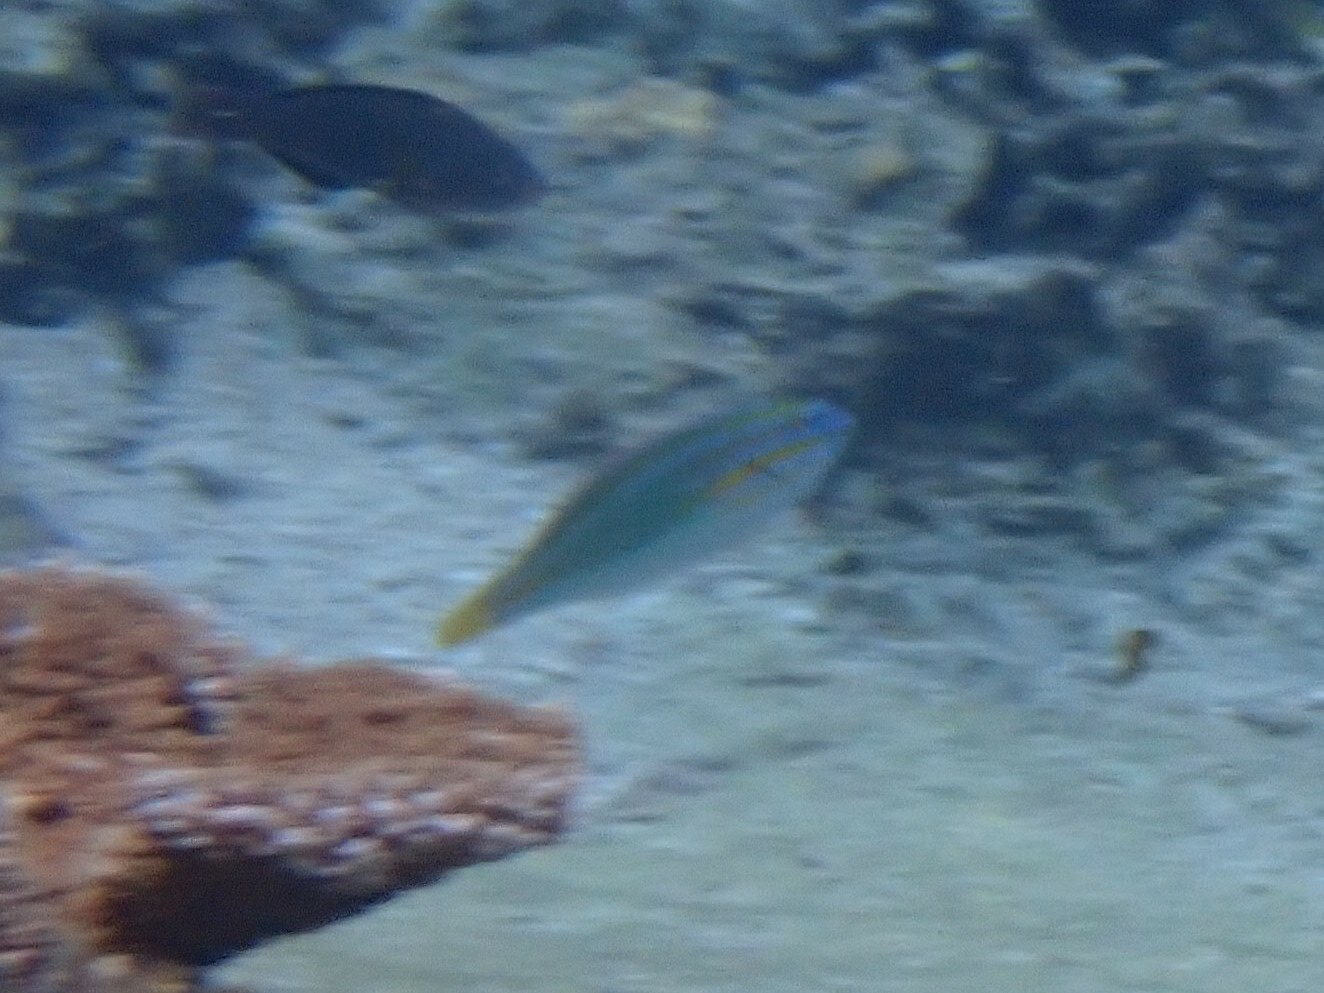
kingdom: Animalia
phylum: Chordata
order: Perciformes
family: Labridae
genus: Stethojulis
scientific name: Stethojulis trilineata
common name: Blue-ribbon wrasse
